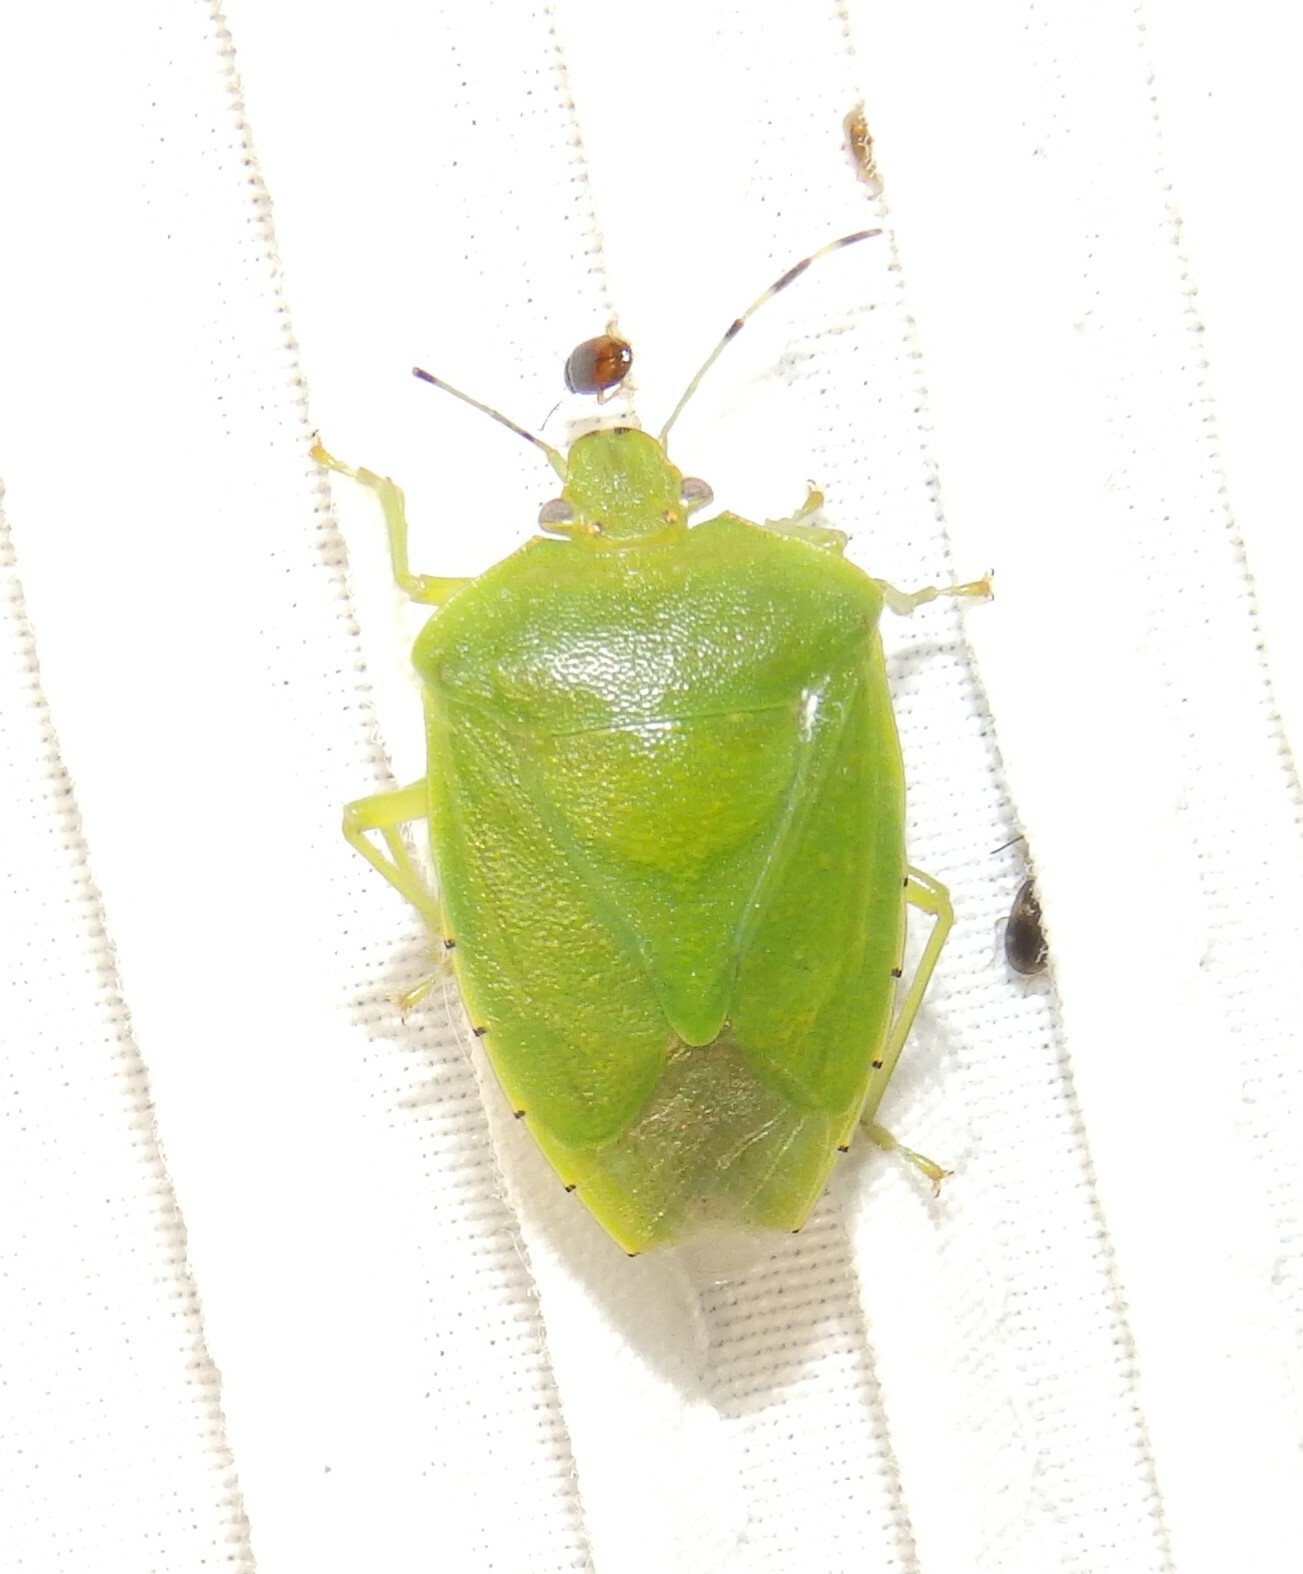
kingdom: Animalia
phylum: Arthropoda
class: Insecta
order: Hemiptera
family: Pentatomidae
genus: Chinavia
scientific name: Chinavia hilaris
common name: Green stink bug
